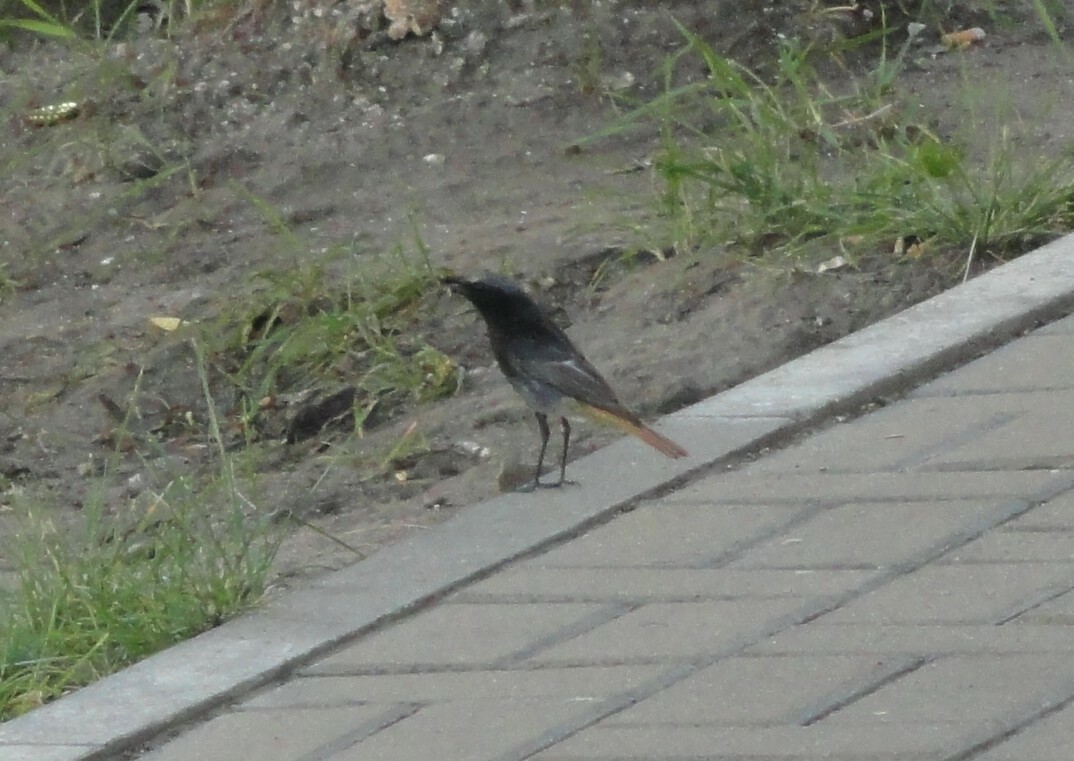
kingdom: Animalia
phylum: Chordata
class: Aves
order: Passeriformes
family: Muscicapidae
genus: Phoenicurus
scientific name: Phoenicurus ochruros
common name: Black redstart
